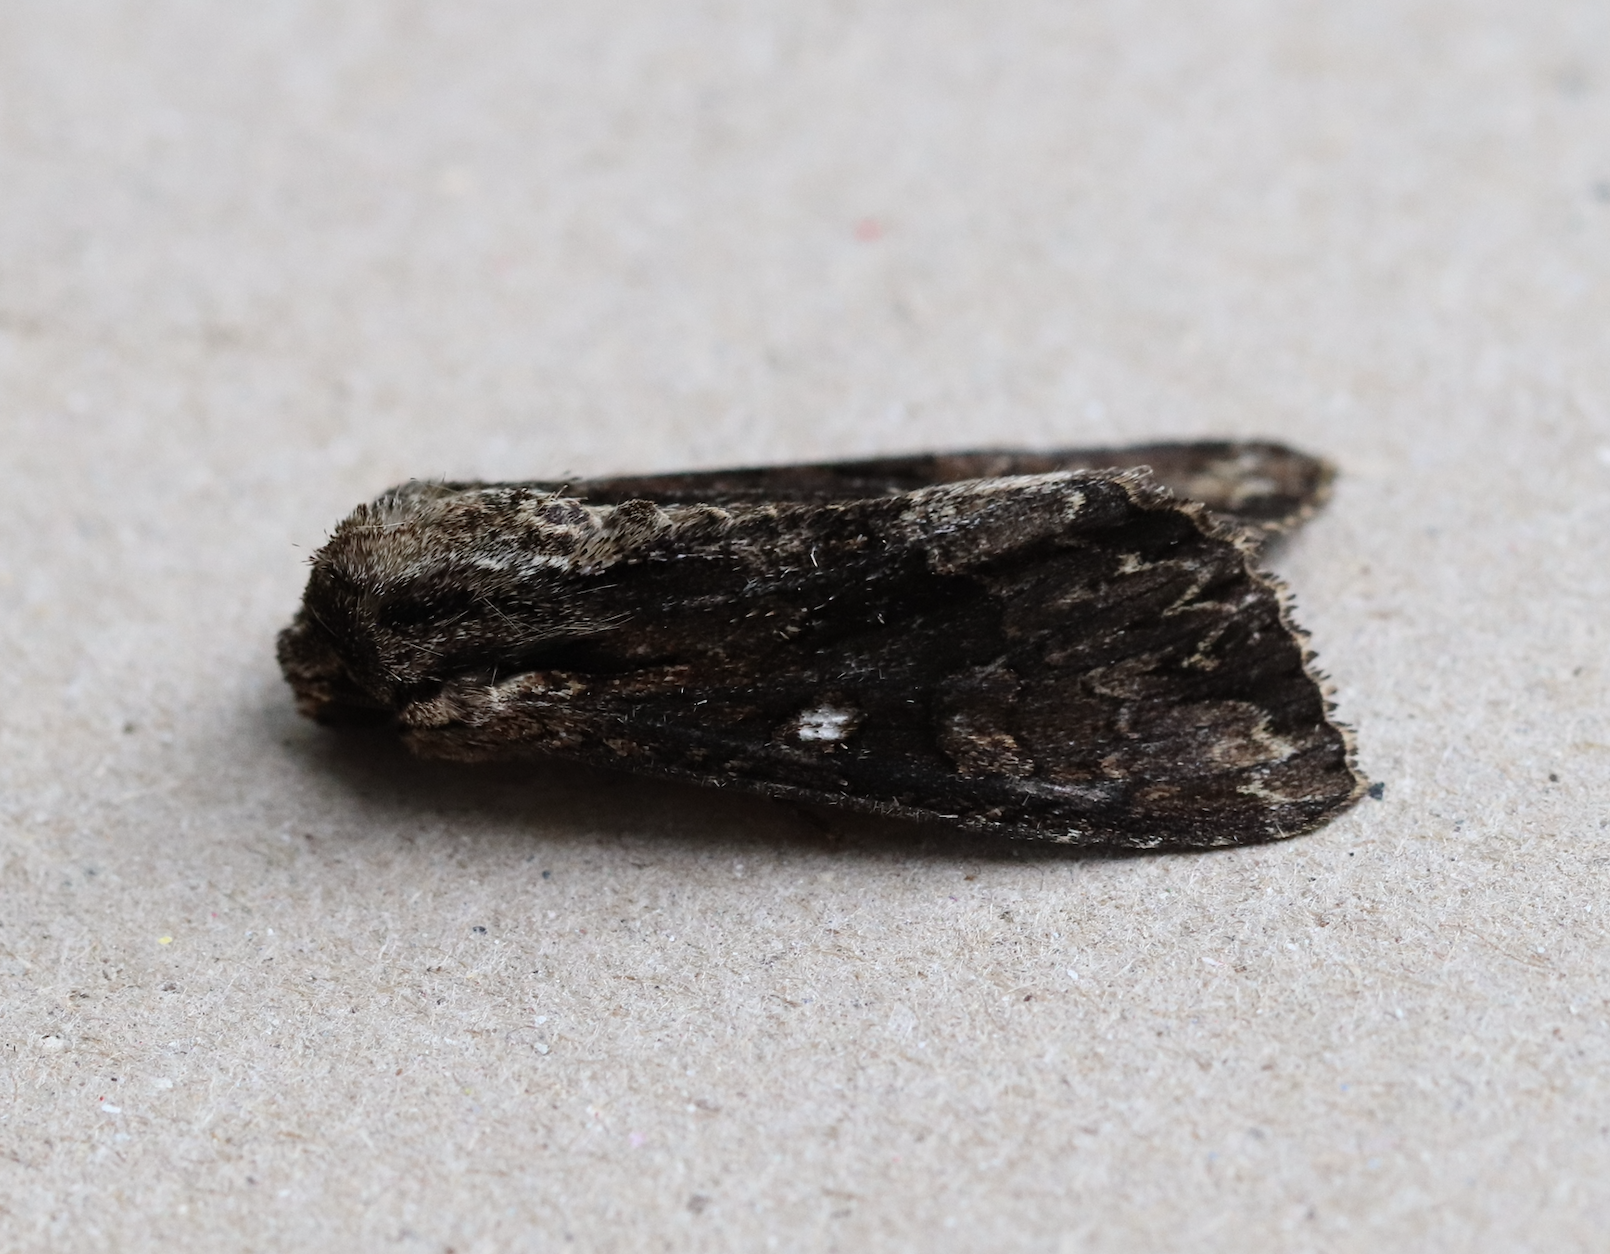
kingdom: Animalia
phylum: Arthropoda
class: Insecta
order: Lepidoptera
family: Noctuidae
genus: Apamea
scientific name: Apamea monoglypha
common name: Dark arches
